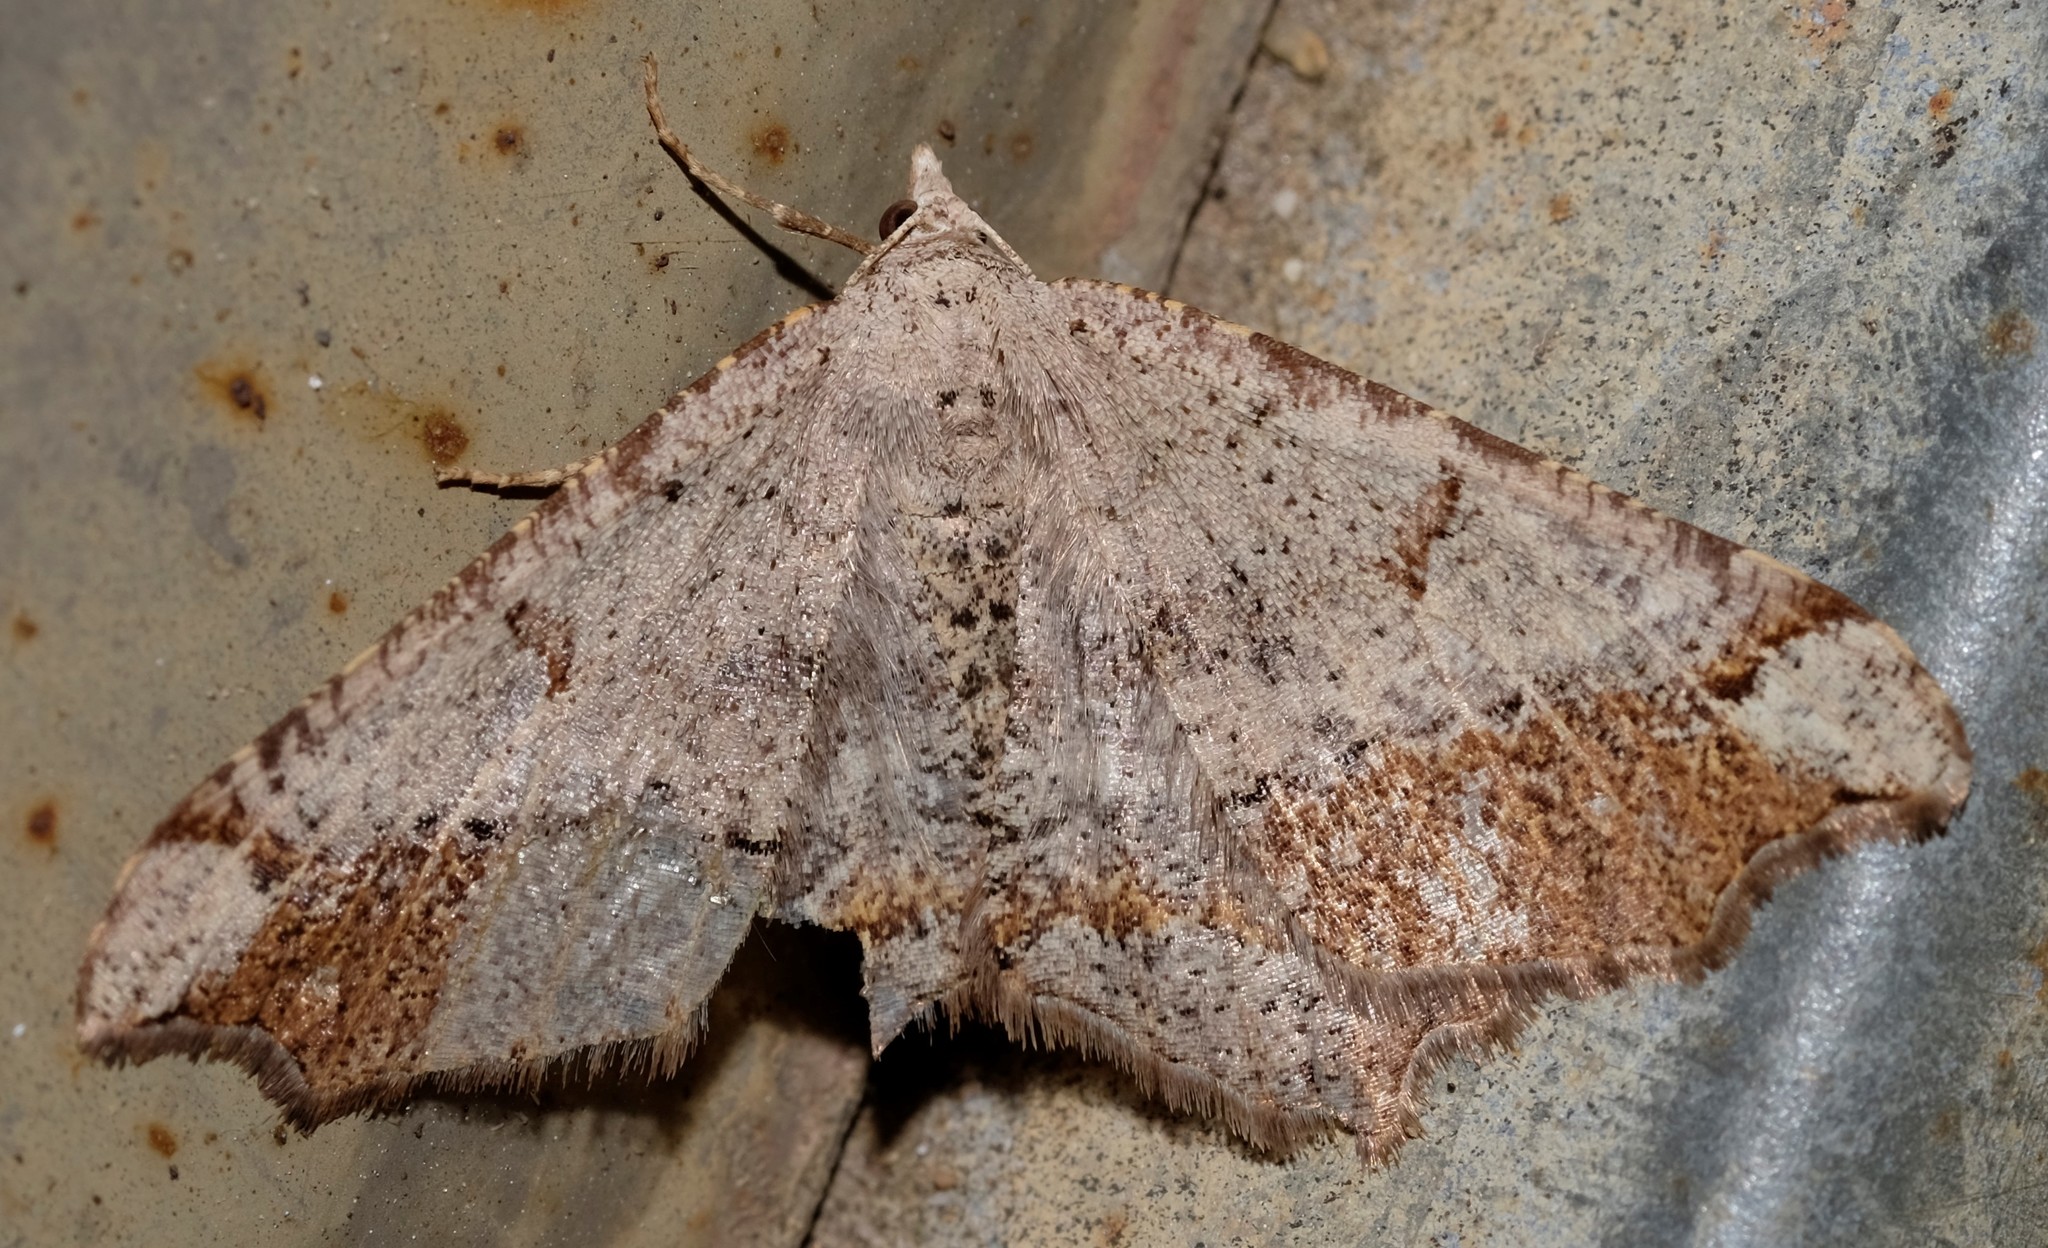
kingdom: Animalia
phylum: Arthropoda
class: Insecta
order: Lepidoptera
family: Geometridae
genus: Dissomorphia
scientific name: Dissomorphia australiaria
